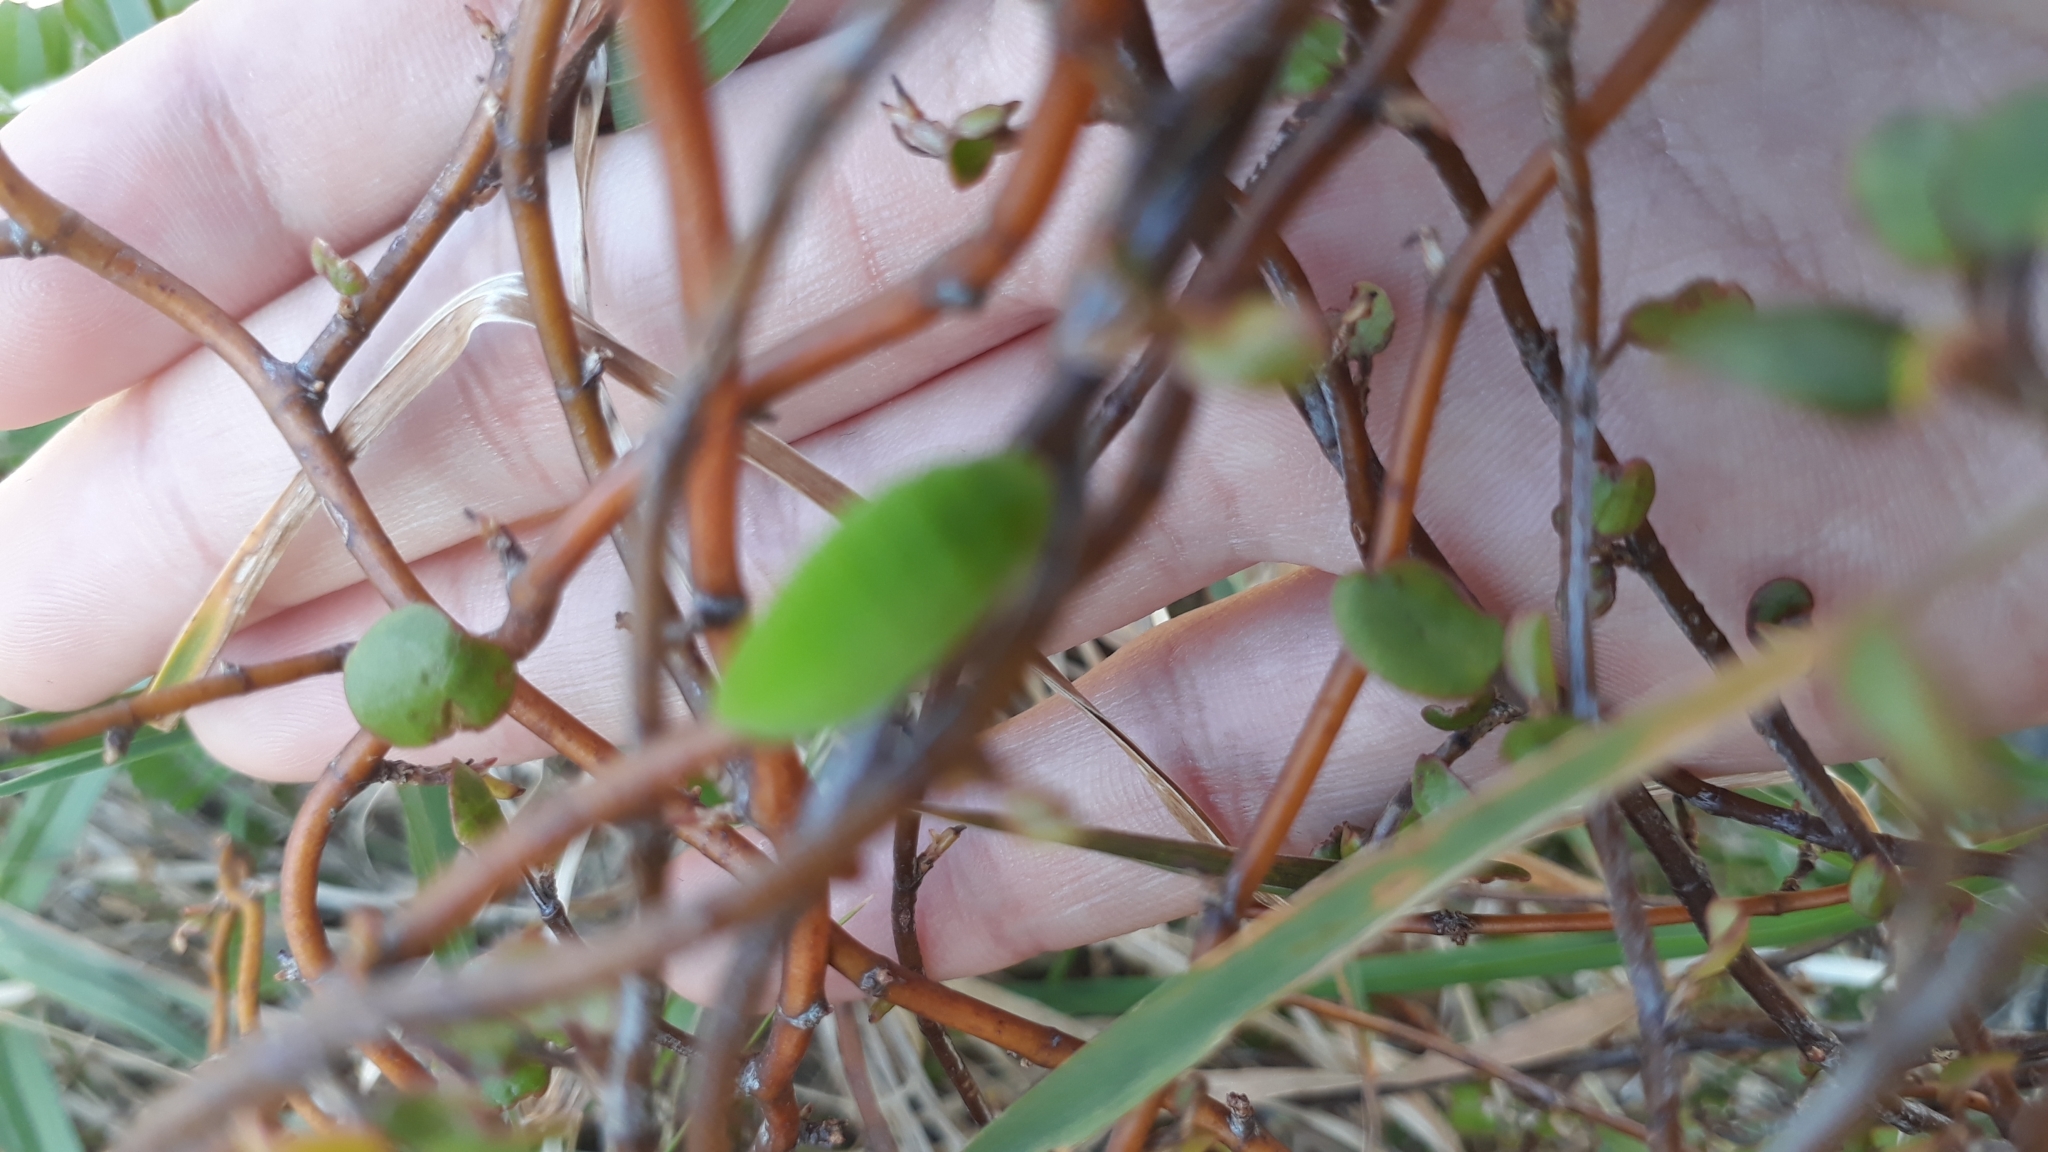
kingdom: Plantae
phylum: Tracheophyta
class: Magnoliopsida
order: Caryophyllales
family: Polygonaceae
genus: Muehlenbeckia
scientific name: Muehlenbeckia complexa
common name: Wireplant
